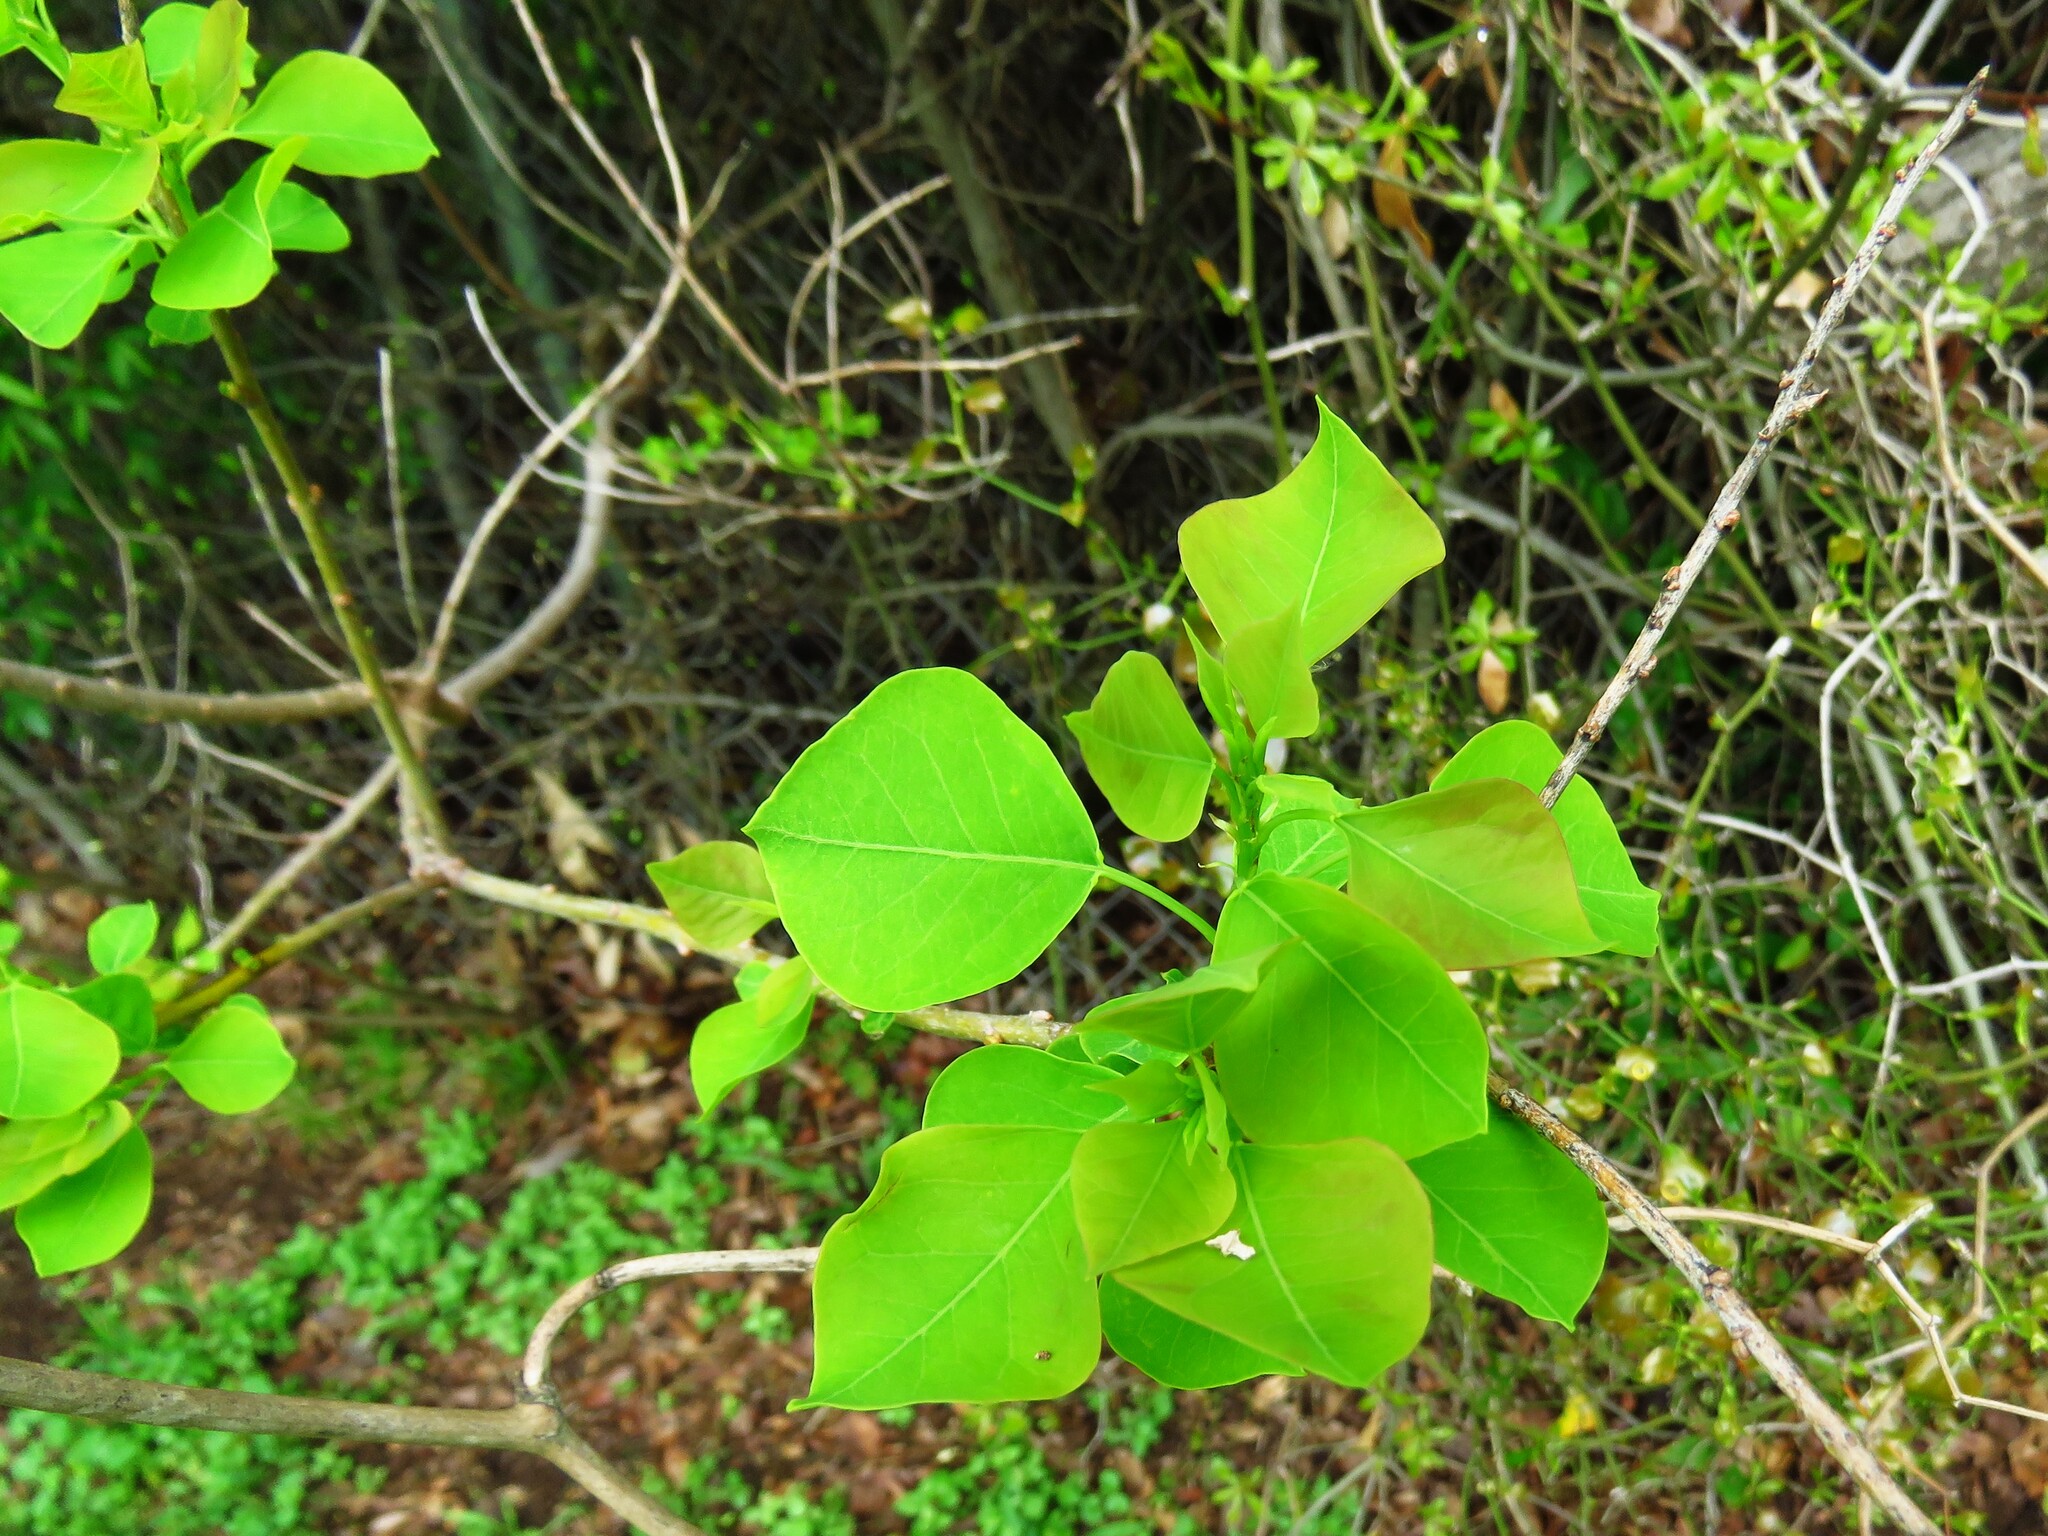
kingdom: Plantae
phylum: Tracheophyta
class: Magnoliopsida
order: Malpighiales
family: Euphorbiaceae
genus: Triadica
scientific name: Triadica sebifera
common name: Chinese tallow
